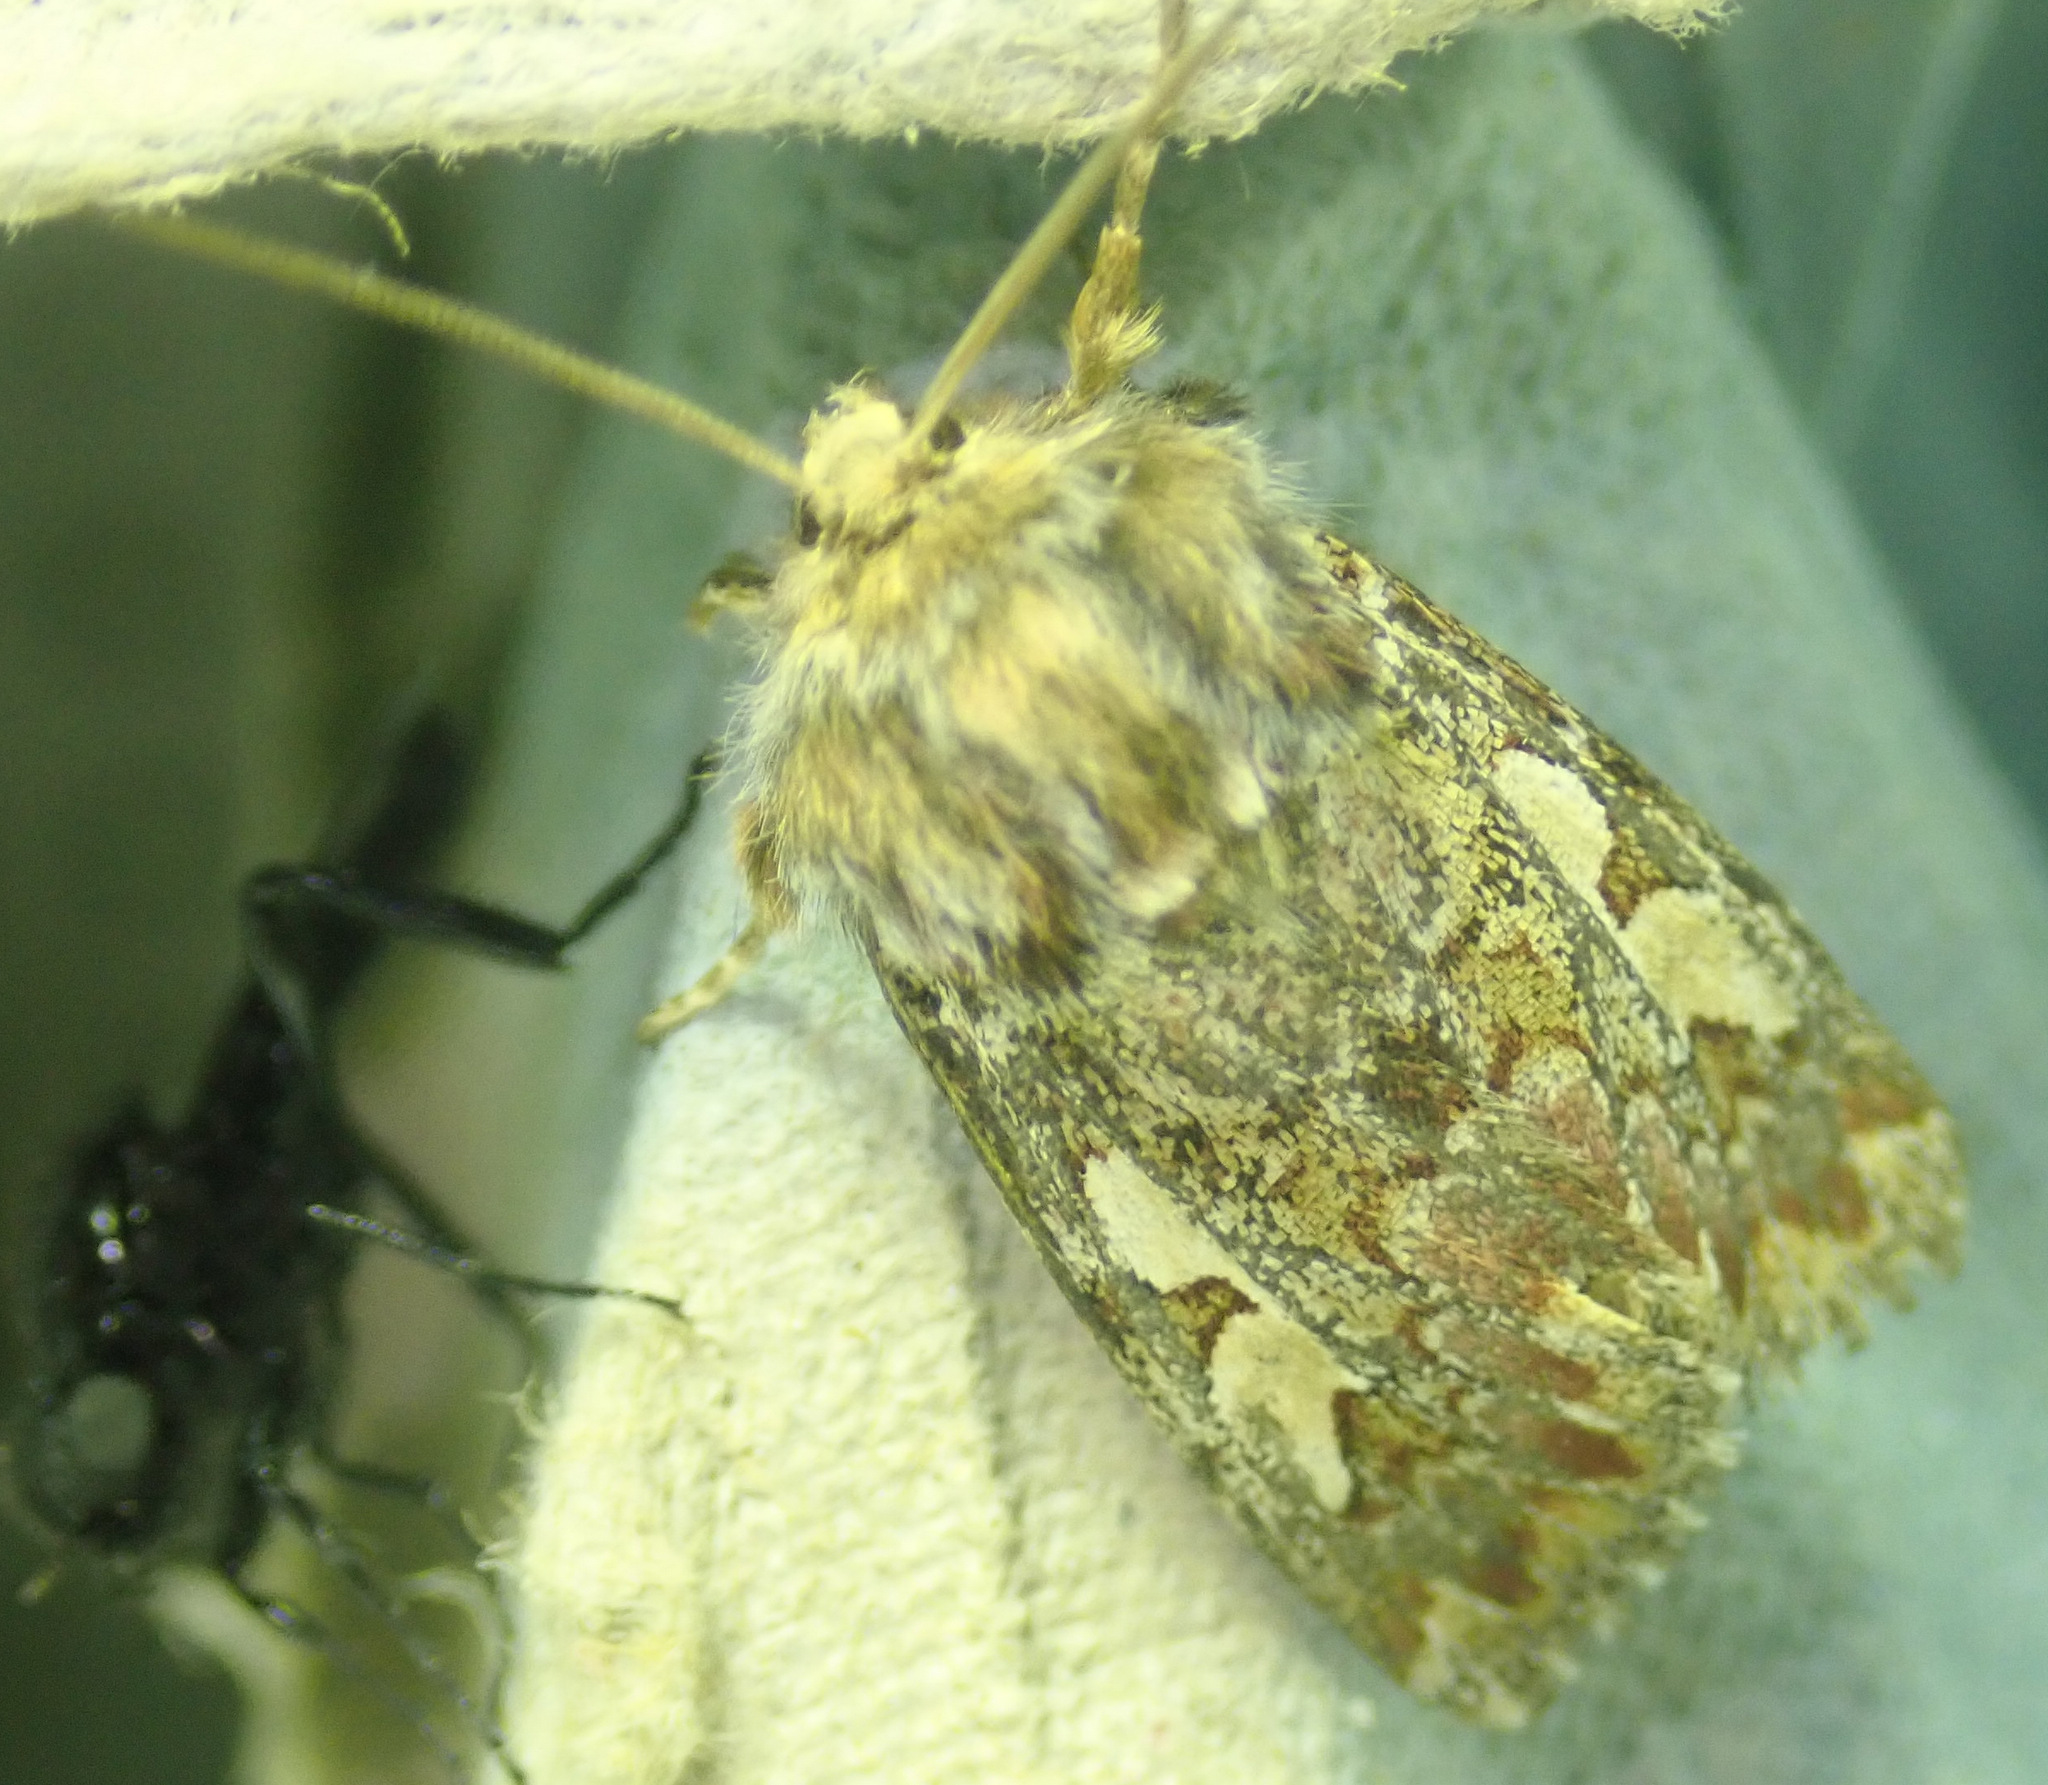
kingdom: Animalia
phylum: Arthropoda
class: Insecta
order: Lepidoptera
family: Noctuidae
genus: Panolis
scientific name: Panolis flammea
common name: Pine beauty
